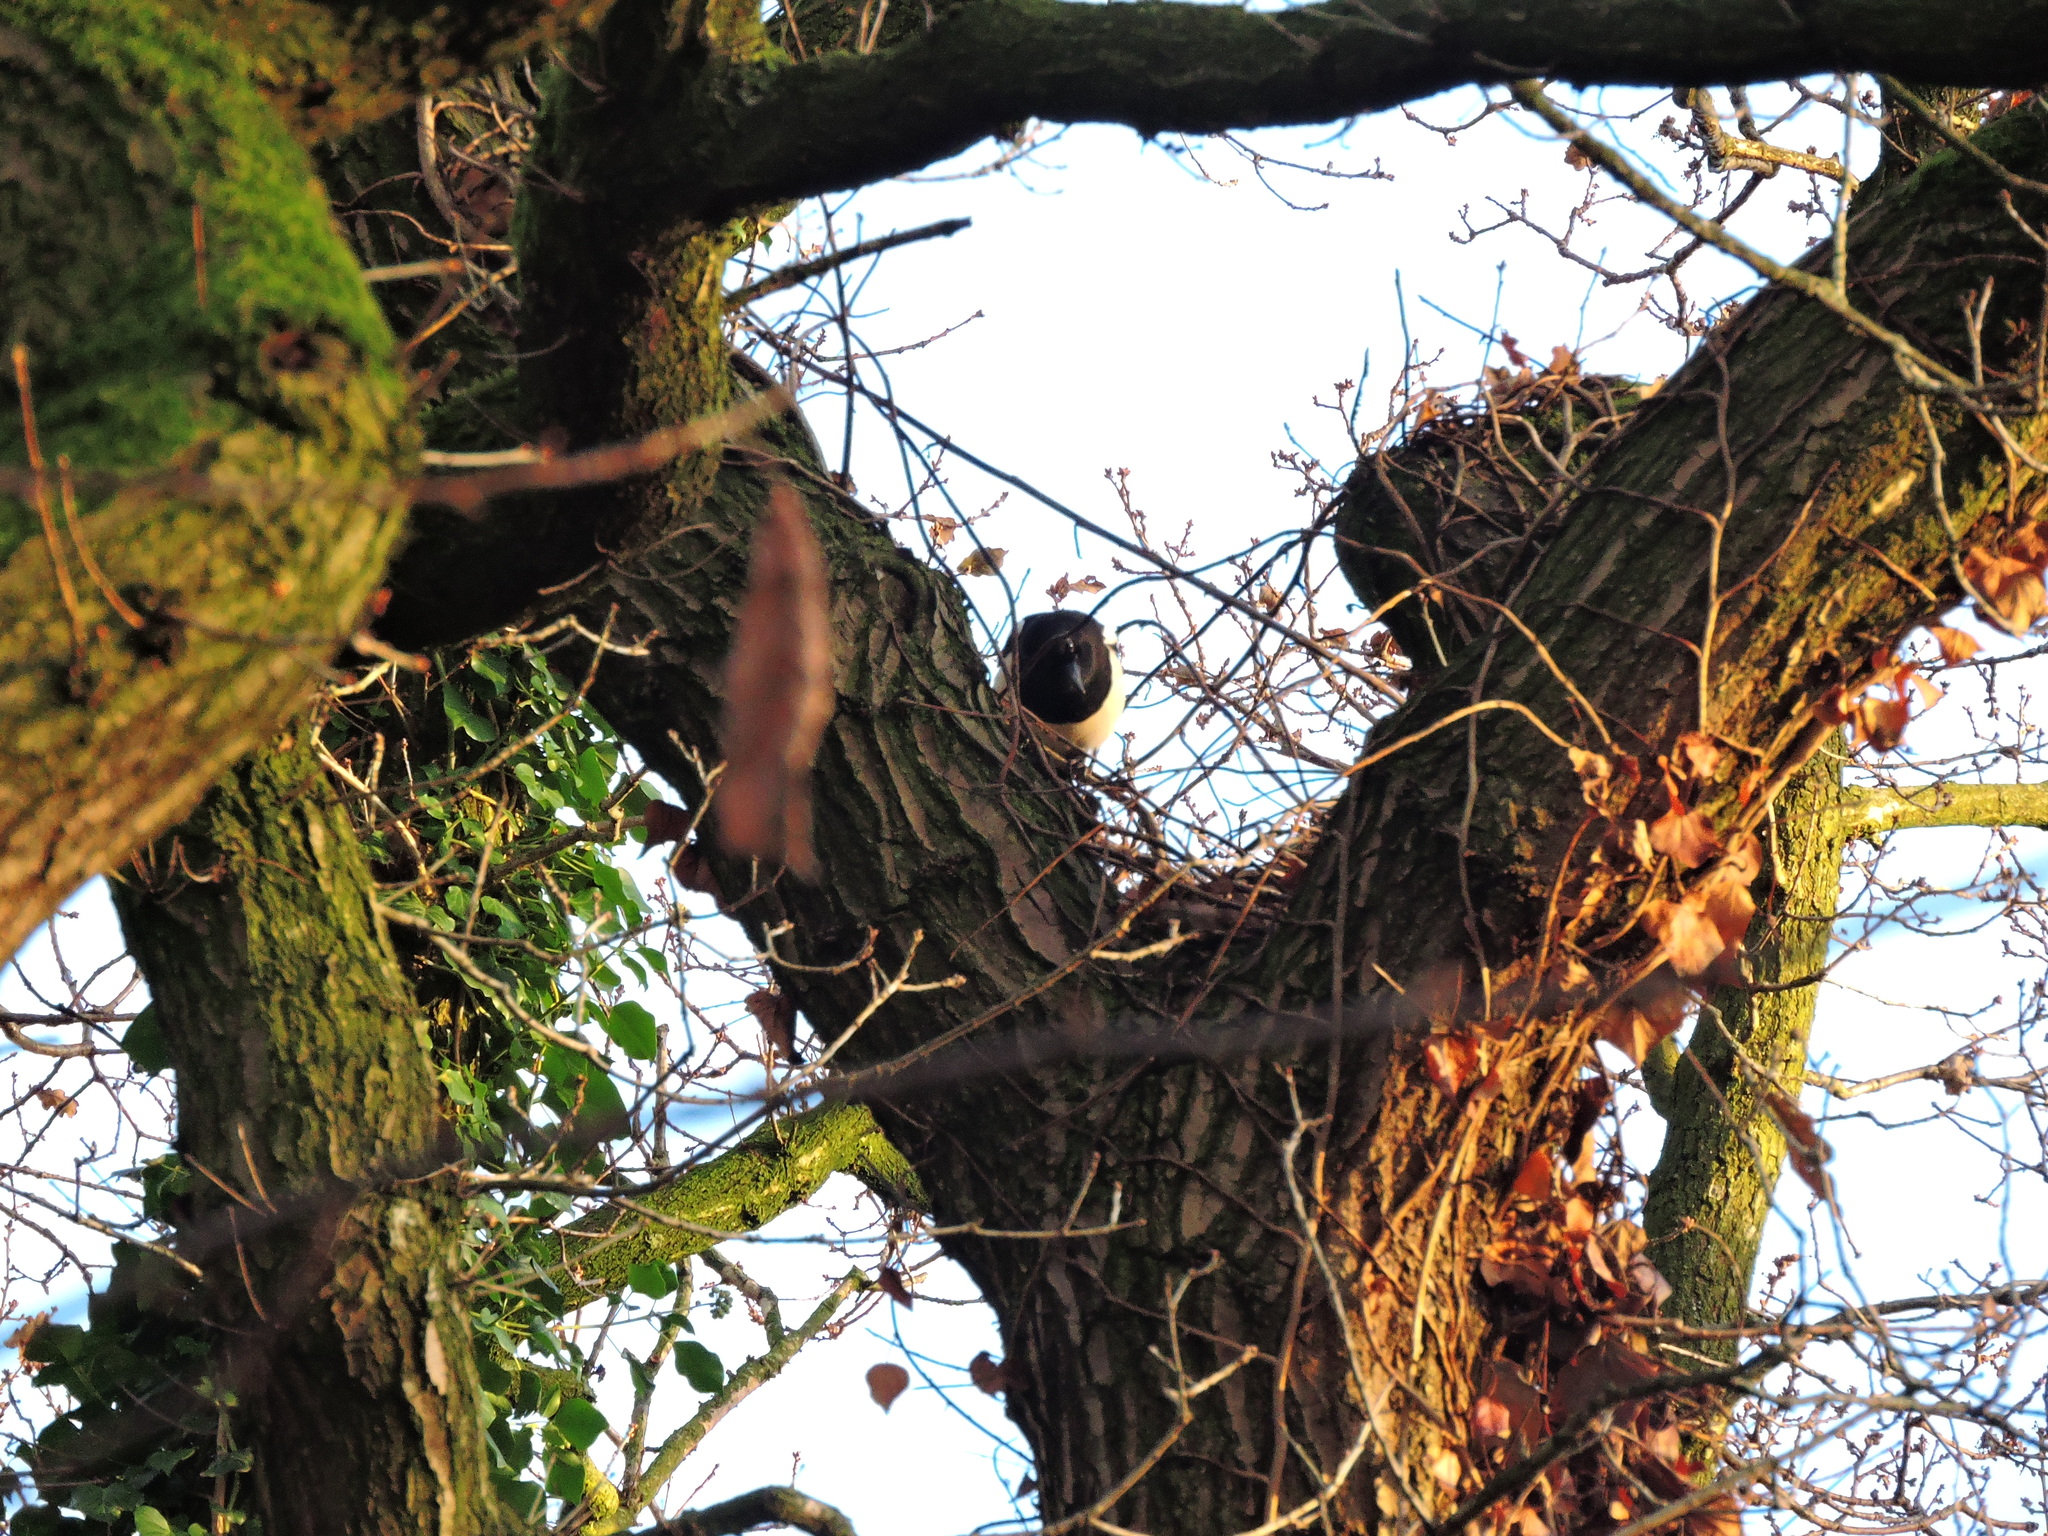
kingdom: Animalia
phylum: Chordata
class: Aves
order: Passeriformes
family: Corvidae
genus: Pica
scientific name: Pica pica
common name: Eurasian magpie
